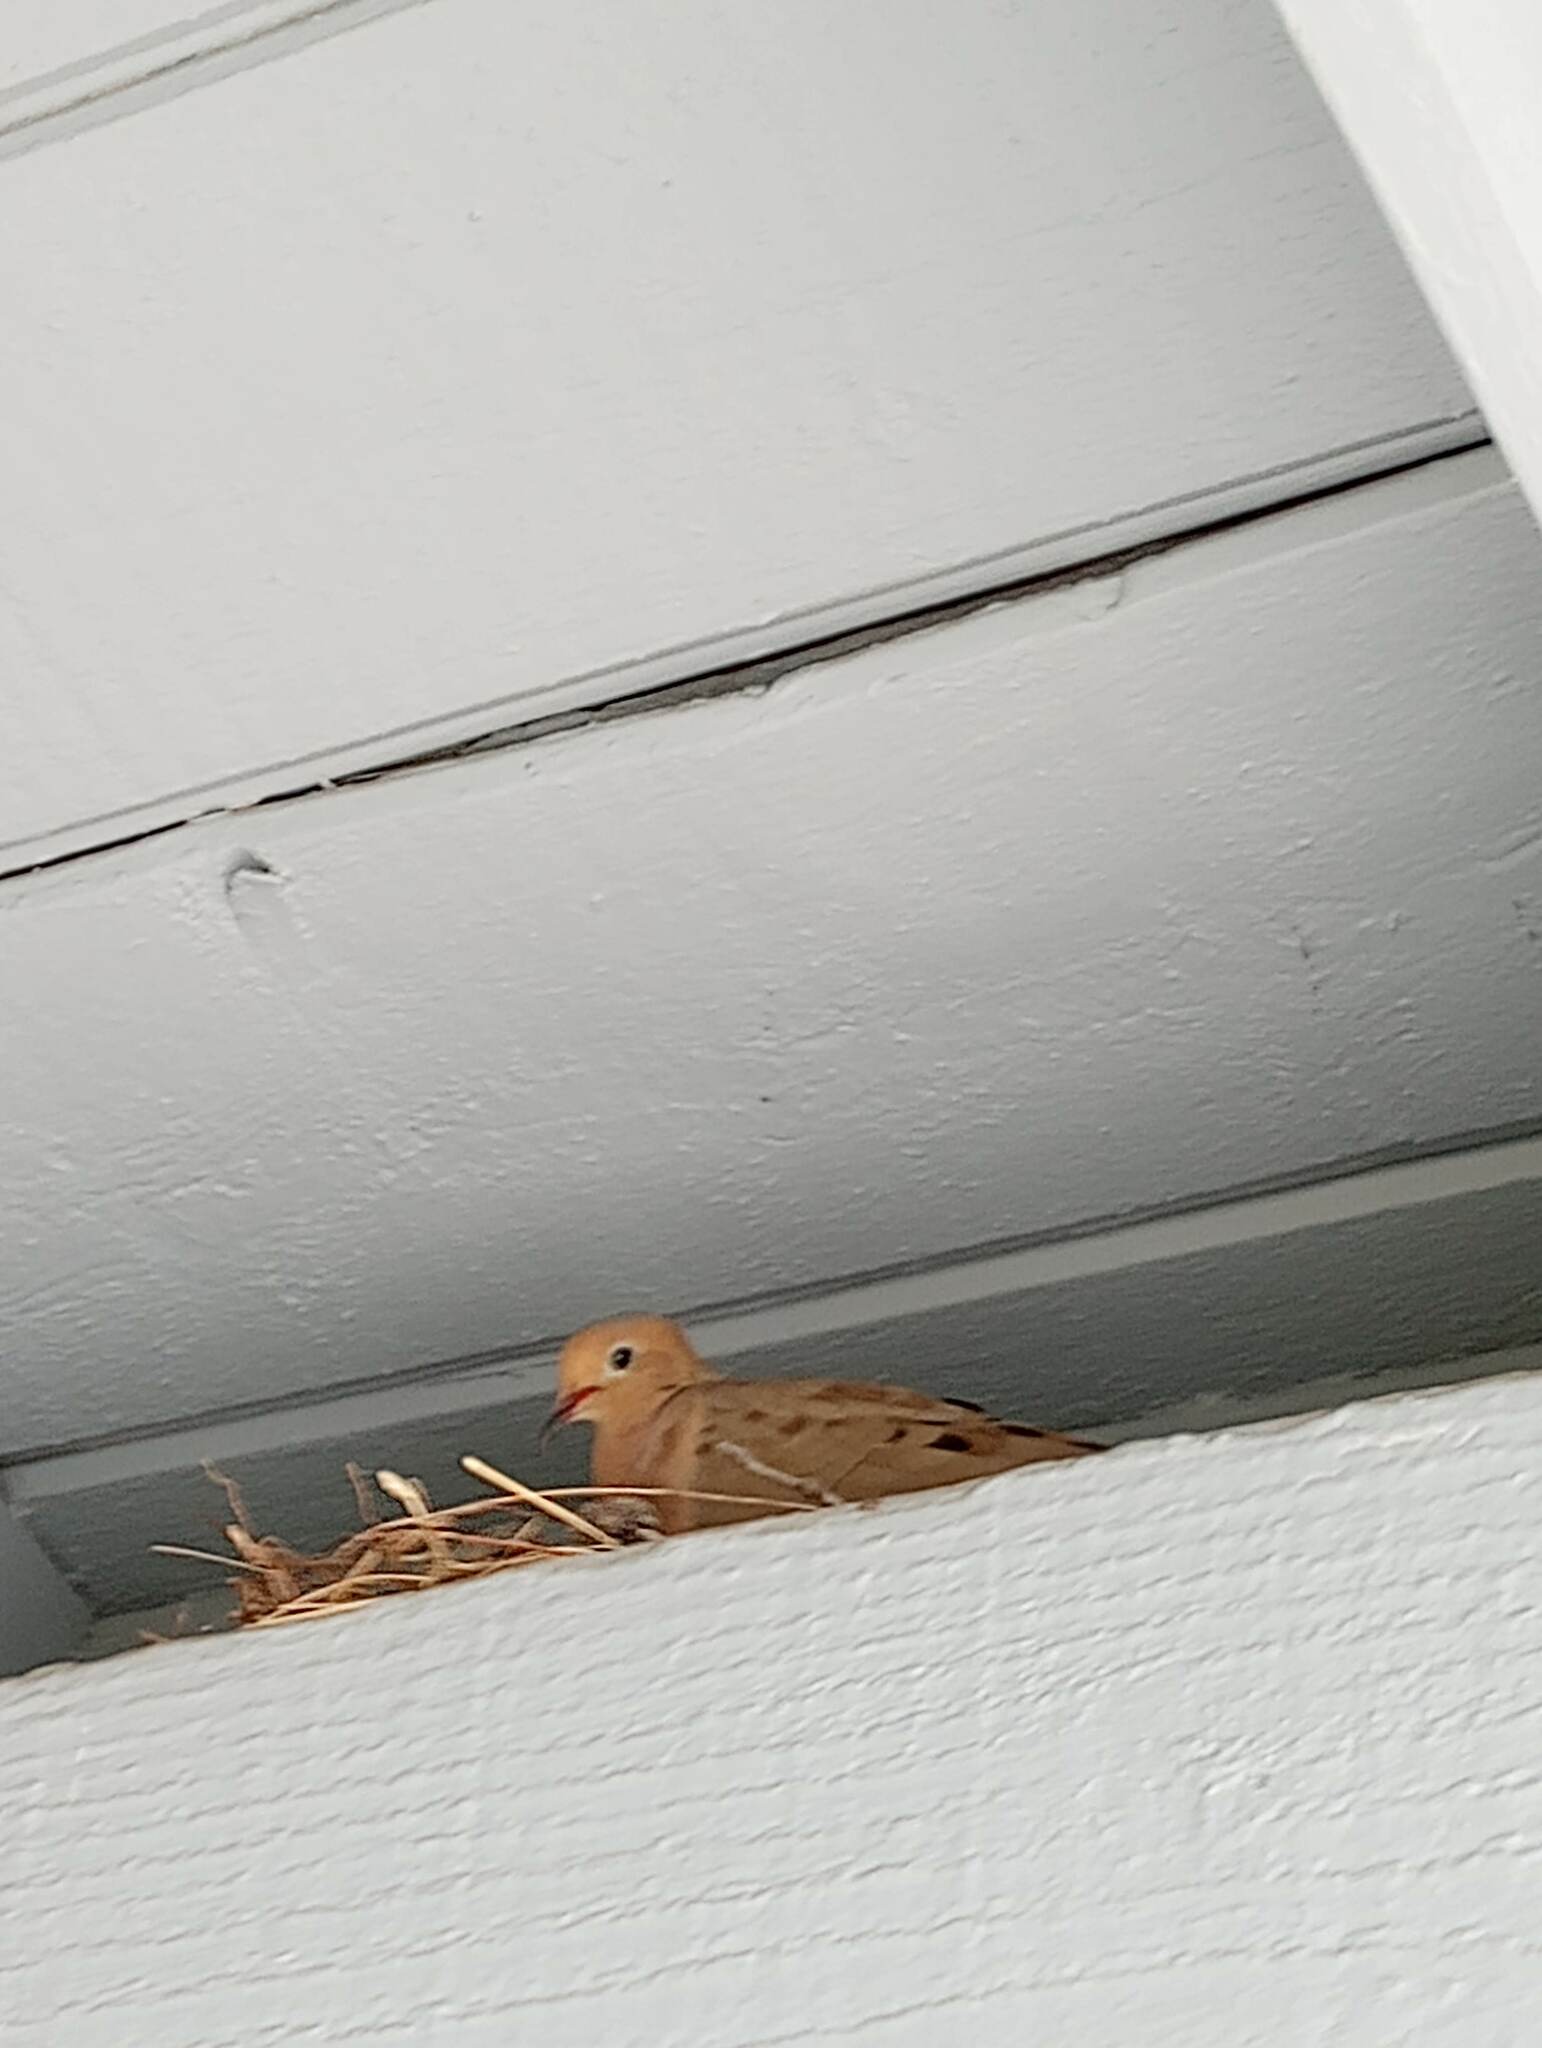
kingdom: Animalia
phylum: Chordata
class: Aves
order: Columbiformes
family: Columbidae
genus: Zenaida
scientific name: Zenaida macroura
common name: Mourning dove
